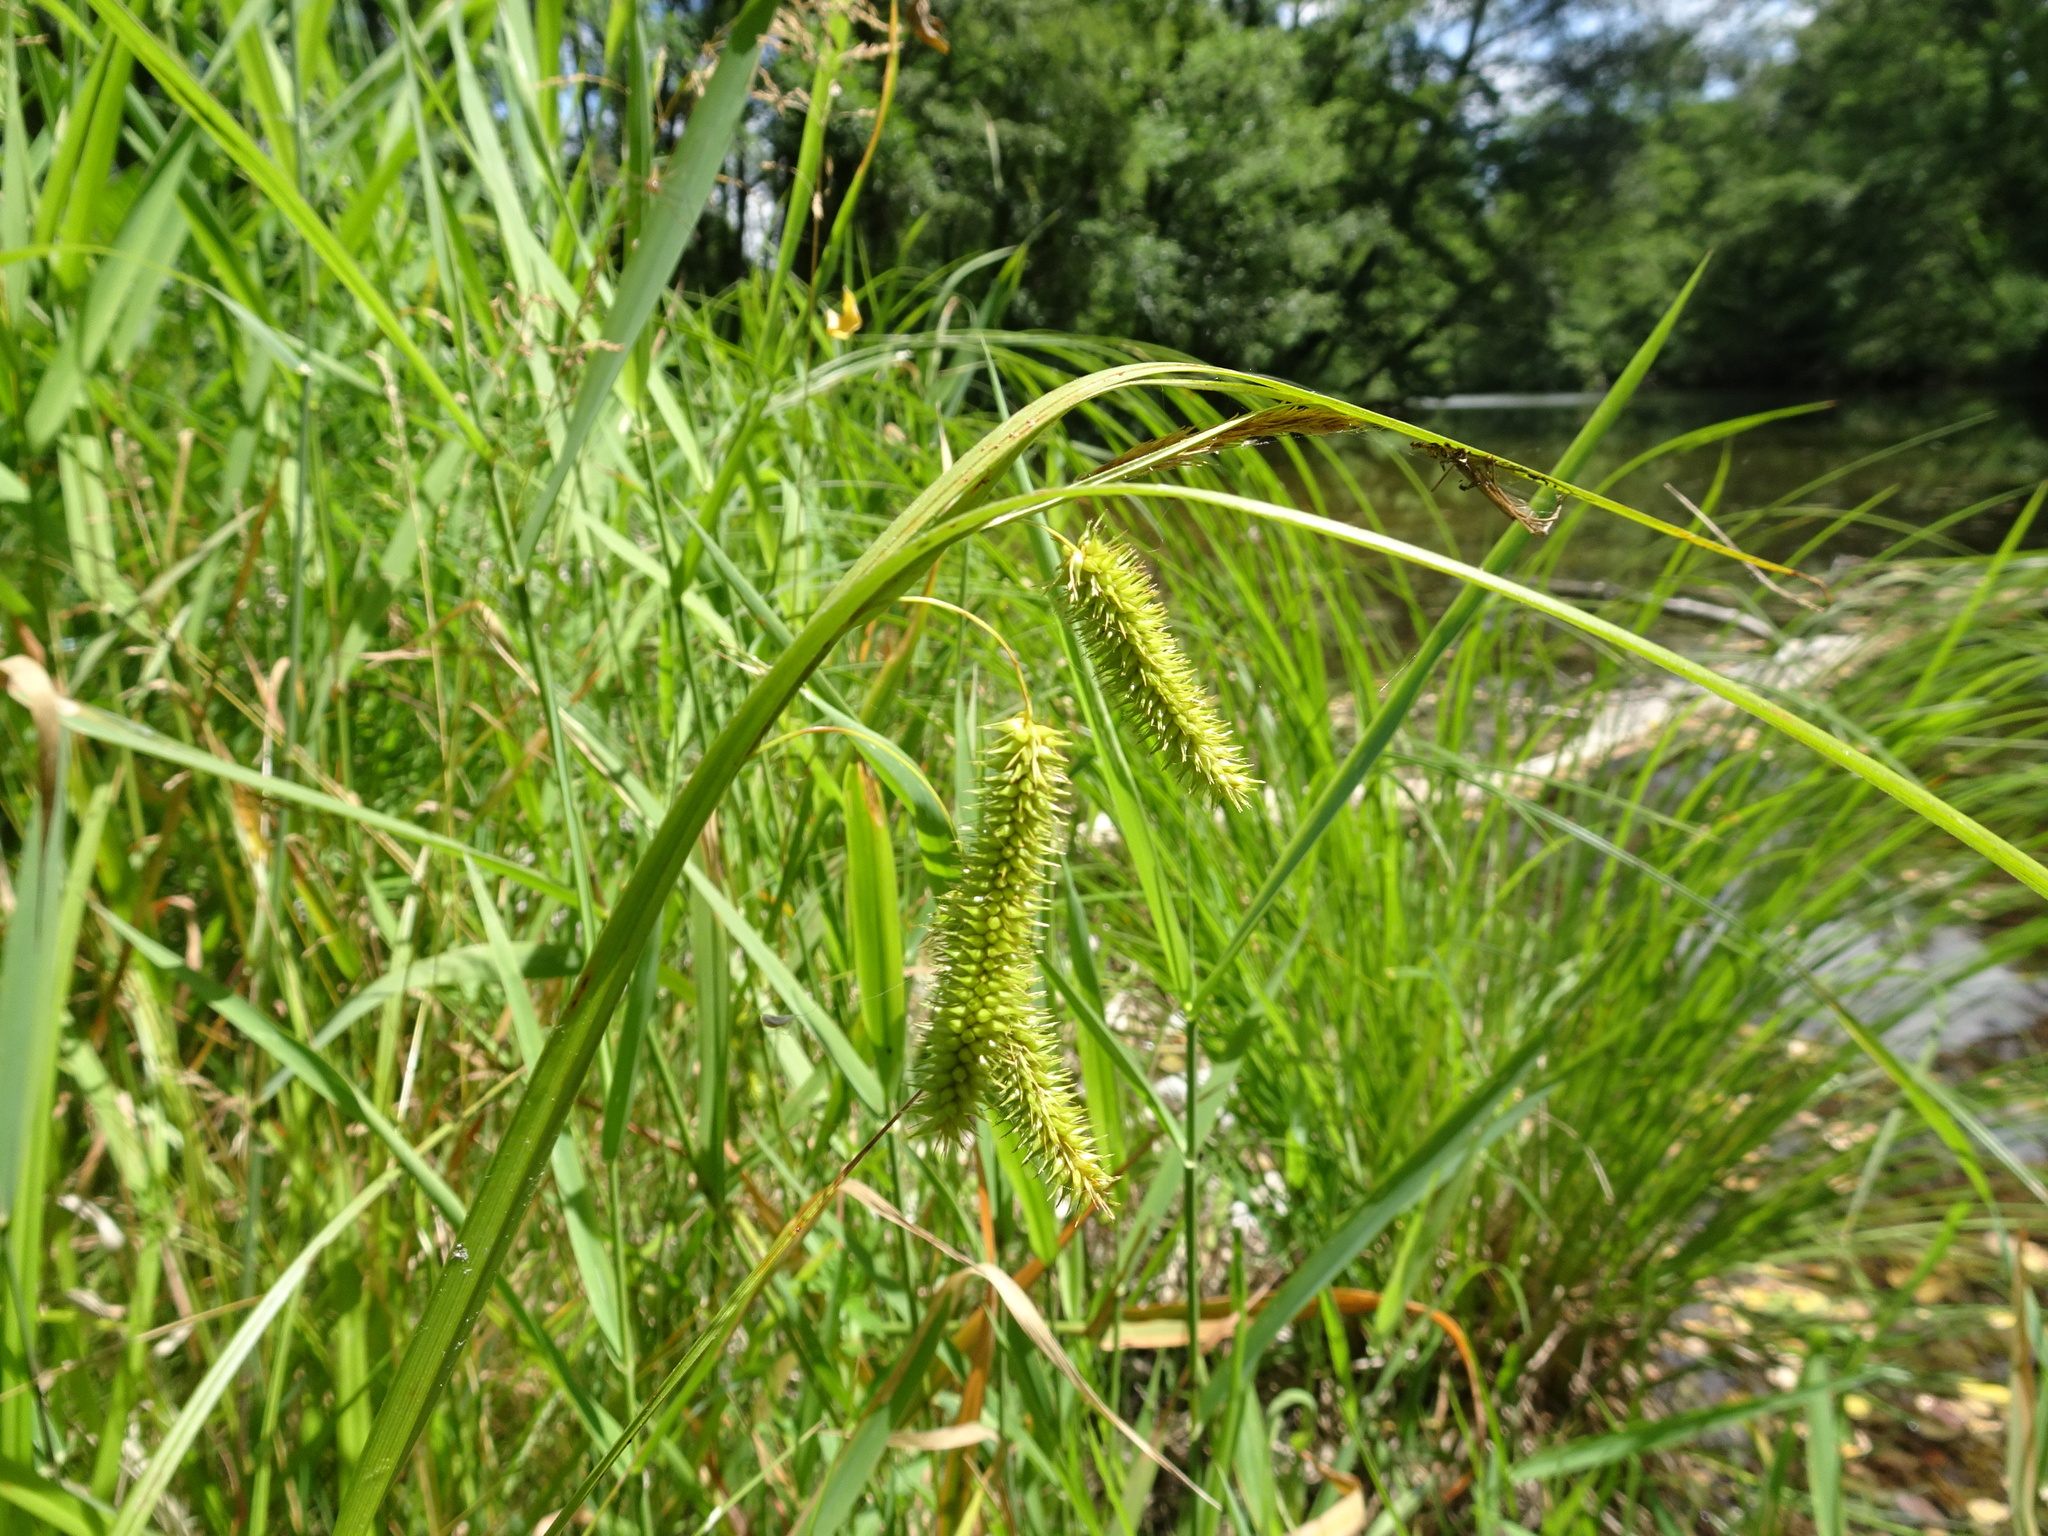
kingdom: Plantae
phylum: Tracheophyta
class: Liliopsida
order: Poales
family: Cyperaceae
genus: Carex
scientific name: Carex pseudocyperus
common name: Cyperus sedge
